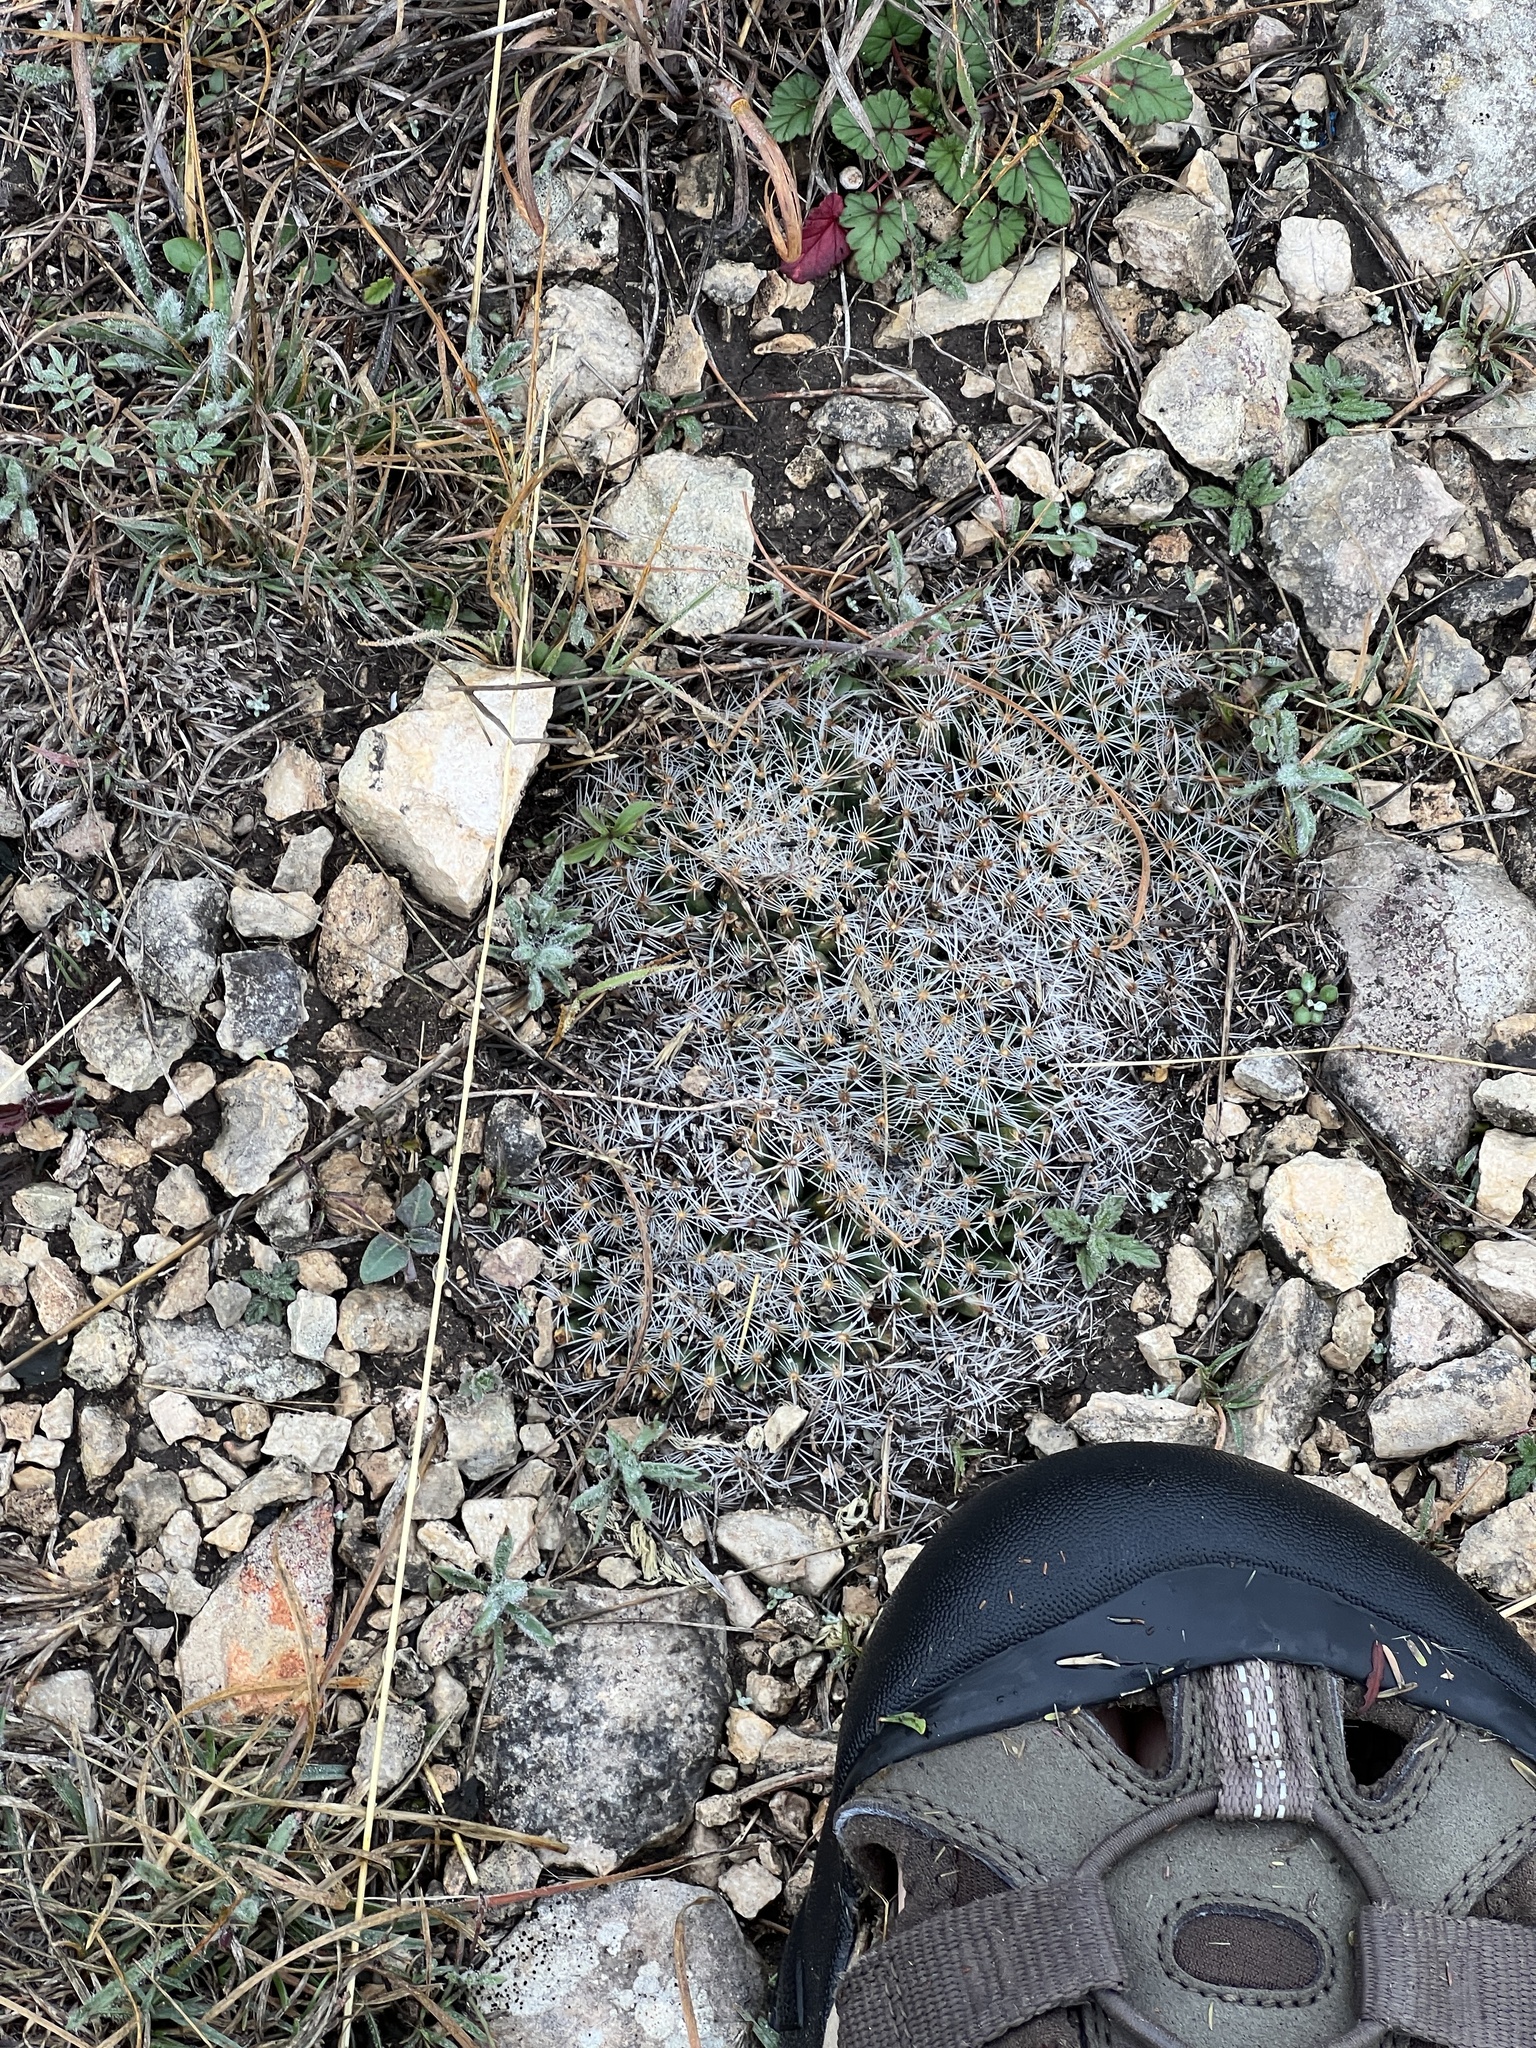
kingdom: Plantae
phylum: Tracheophyta
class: Magnoliopsida
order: Caryophyllales
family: Cactaceae
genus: Mammillaria
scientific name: Mammillaria heyderi
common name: Little nipple cactus
